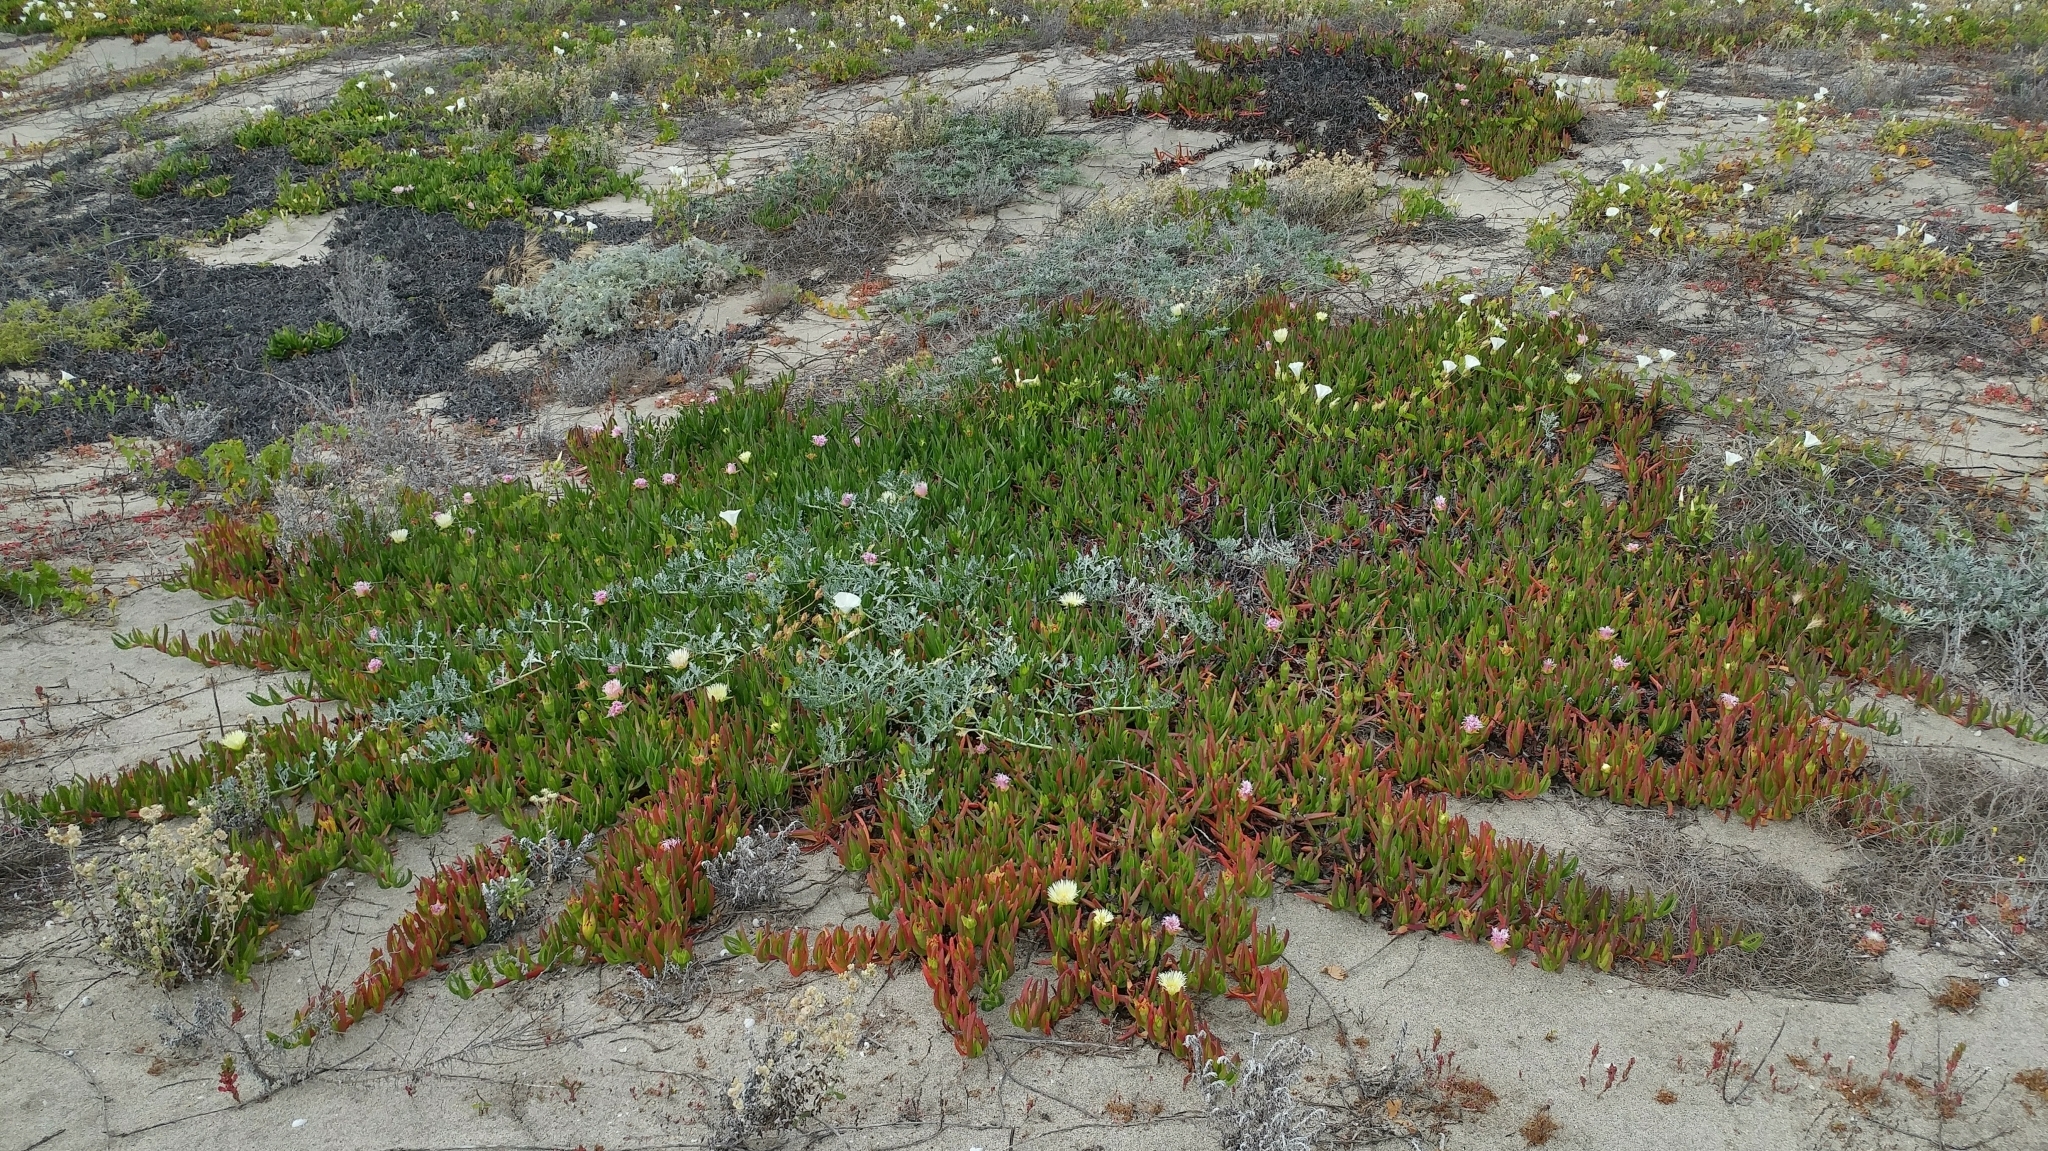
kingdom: Plantae
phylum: Tracheophyta
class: Magnoliopsida
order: Caryophyllales
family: Aizoaceae
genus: Carpobrotus
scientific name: Carpobrotus edulis
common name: Hottentot-fig
